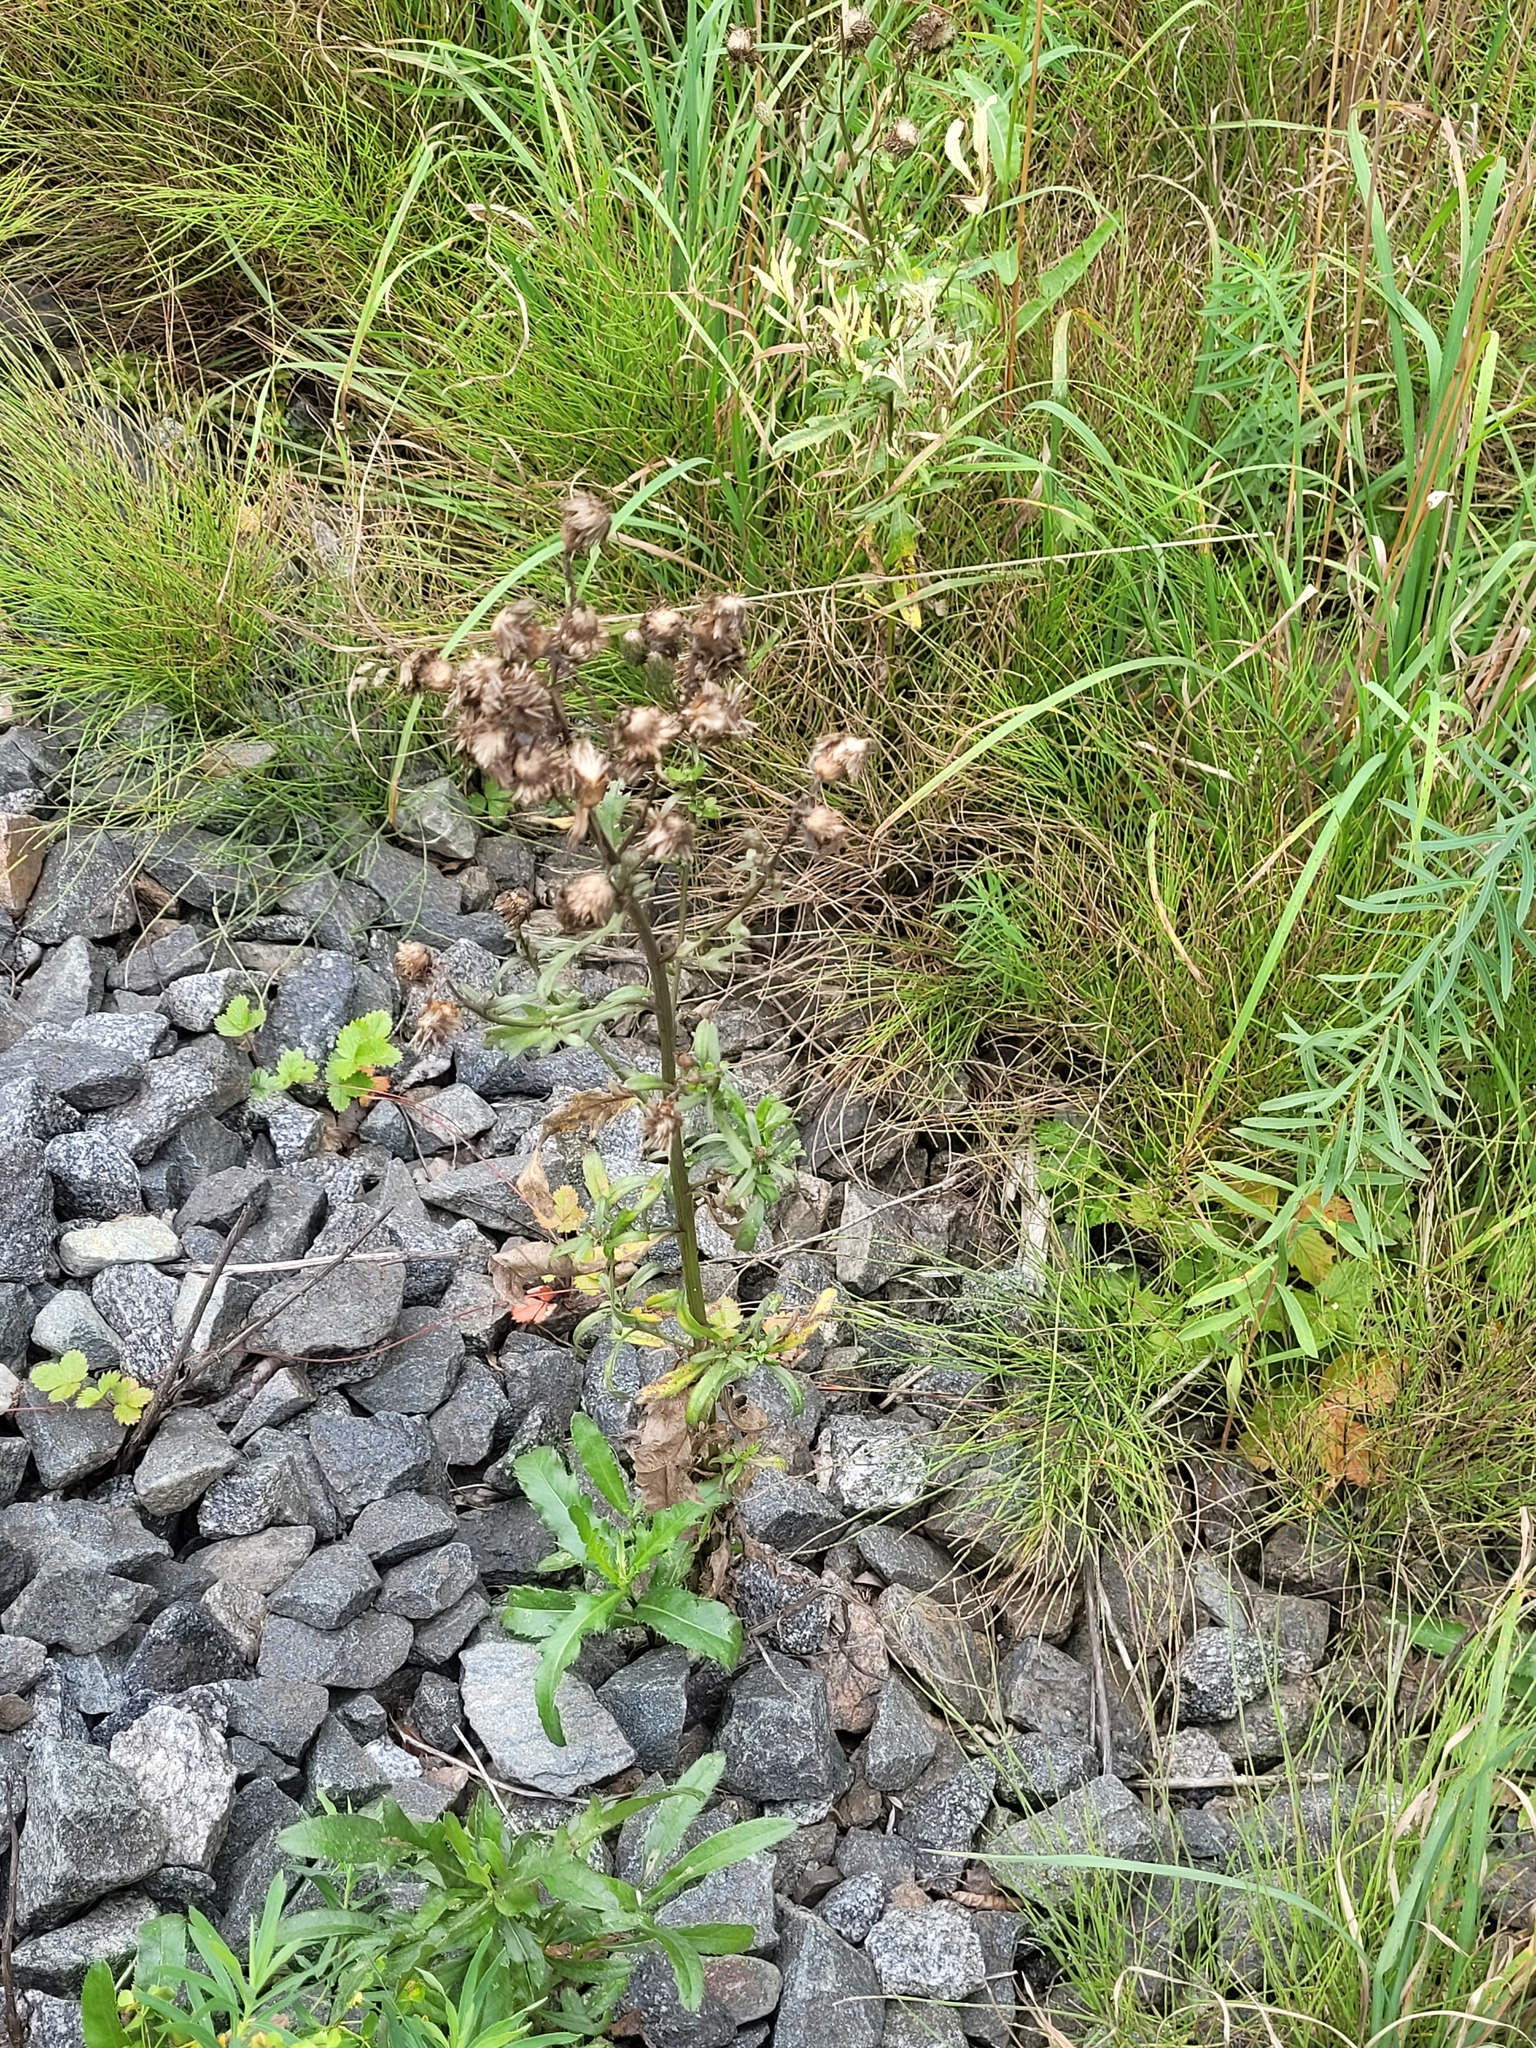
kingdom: Plantae
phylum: Tracheophyta
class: Magnoliopsida
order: Asterales
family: Asteraceae
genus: Cirsium
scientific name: Cirsium arvense
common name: Creeping thistle
